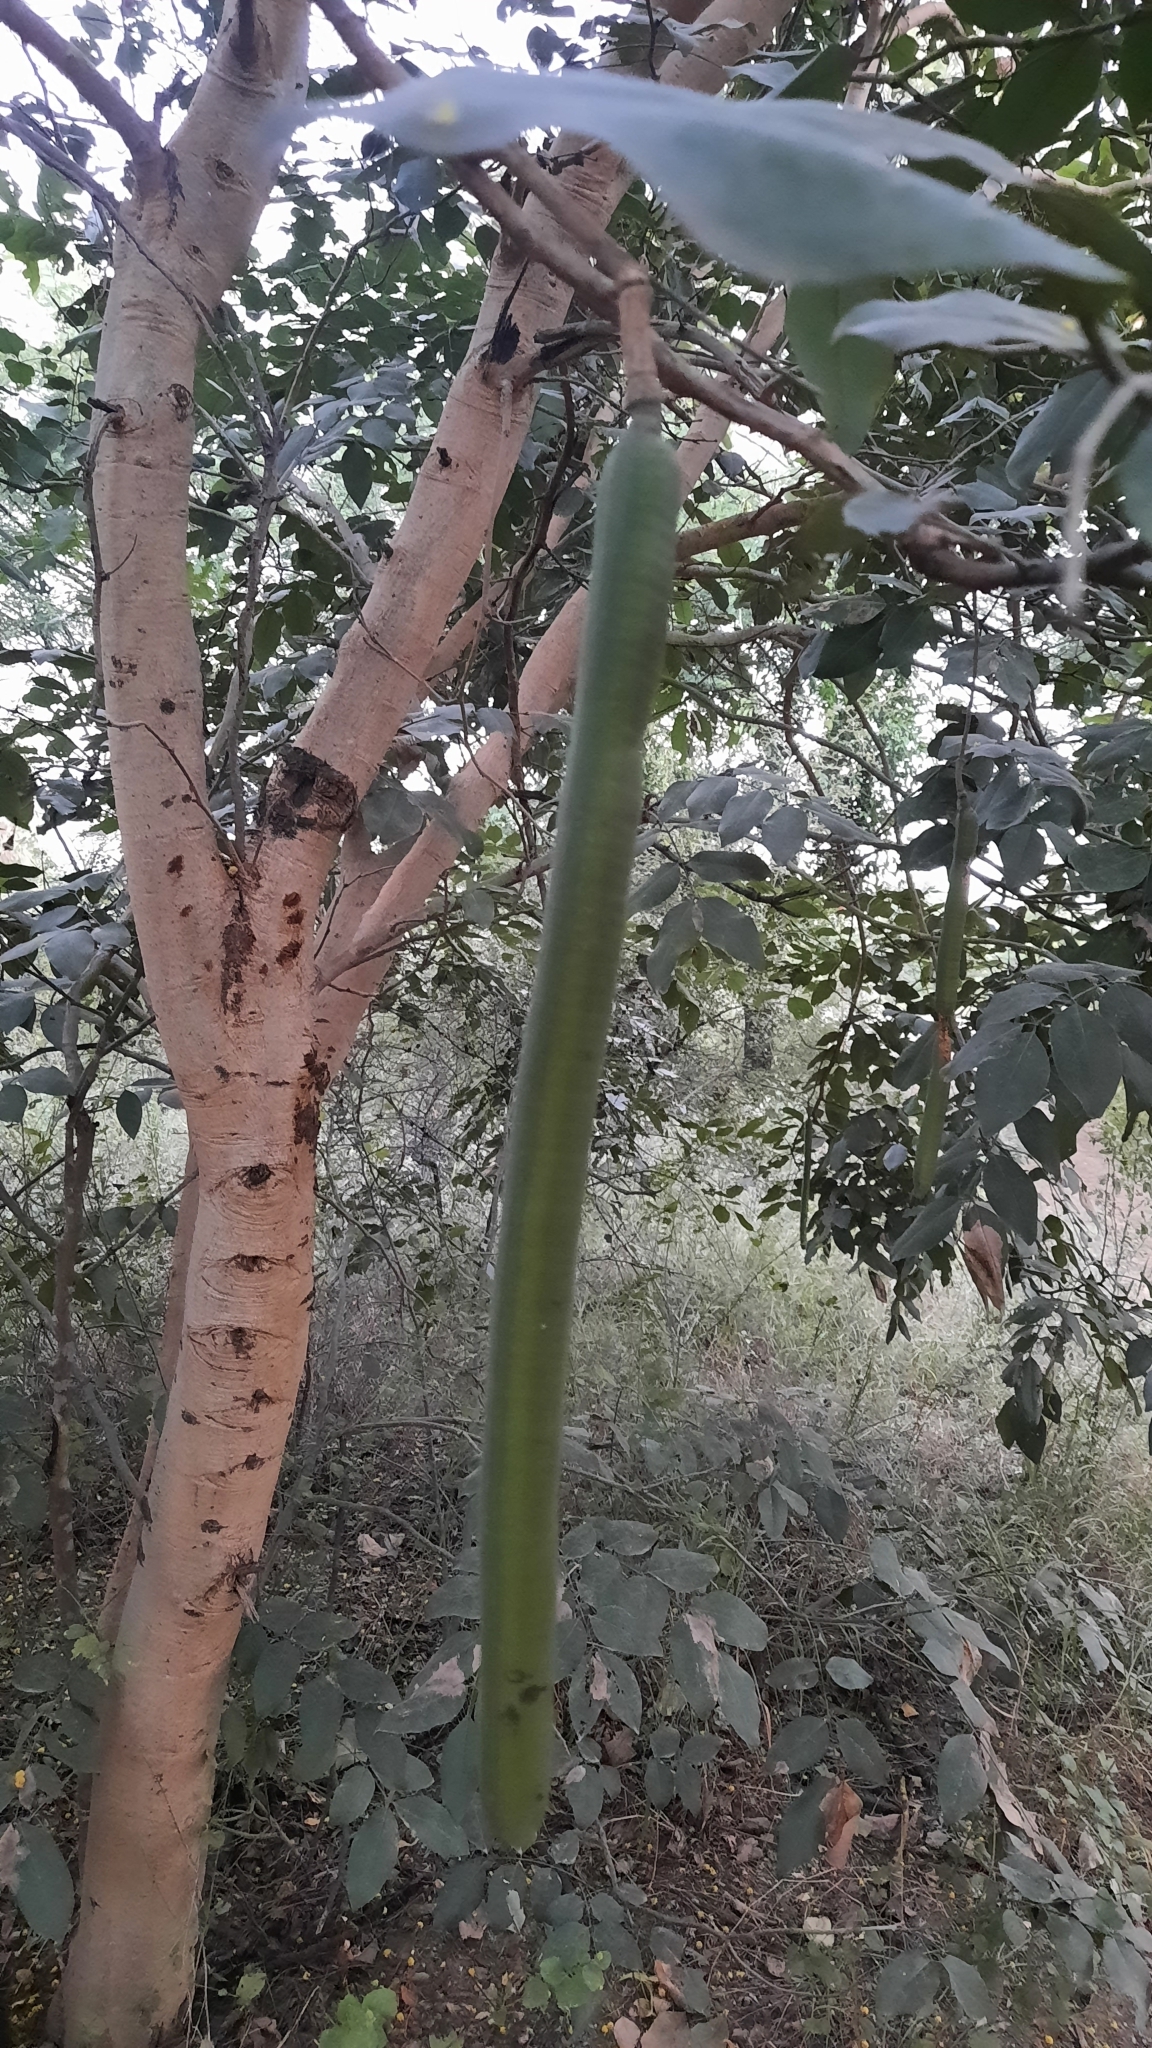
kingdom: Plantae
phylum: Tracheophyta
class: Magnoliopsida
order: Fabales
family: Fabaceae
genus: Cassia
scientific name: Cassia fistula
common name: Golden shower
